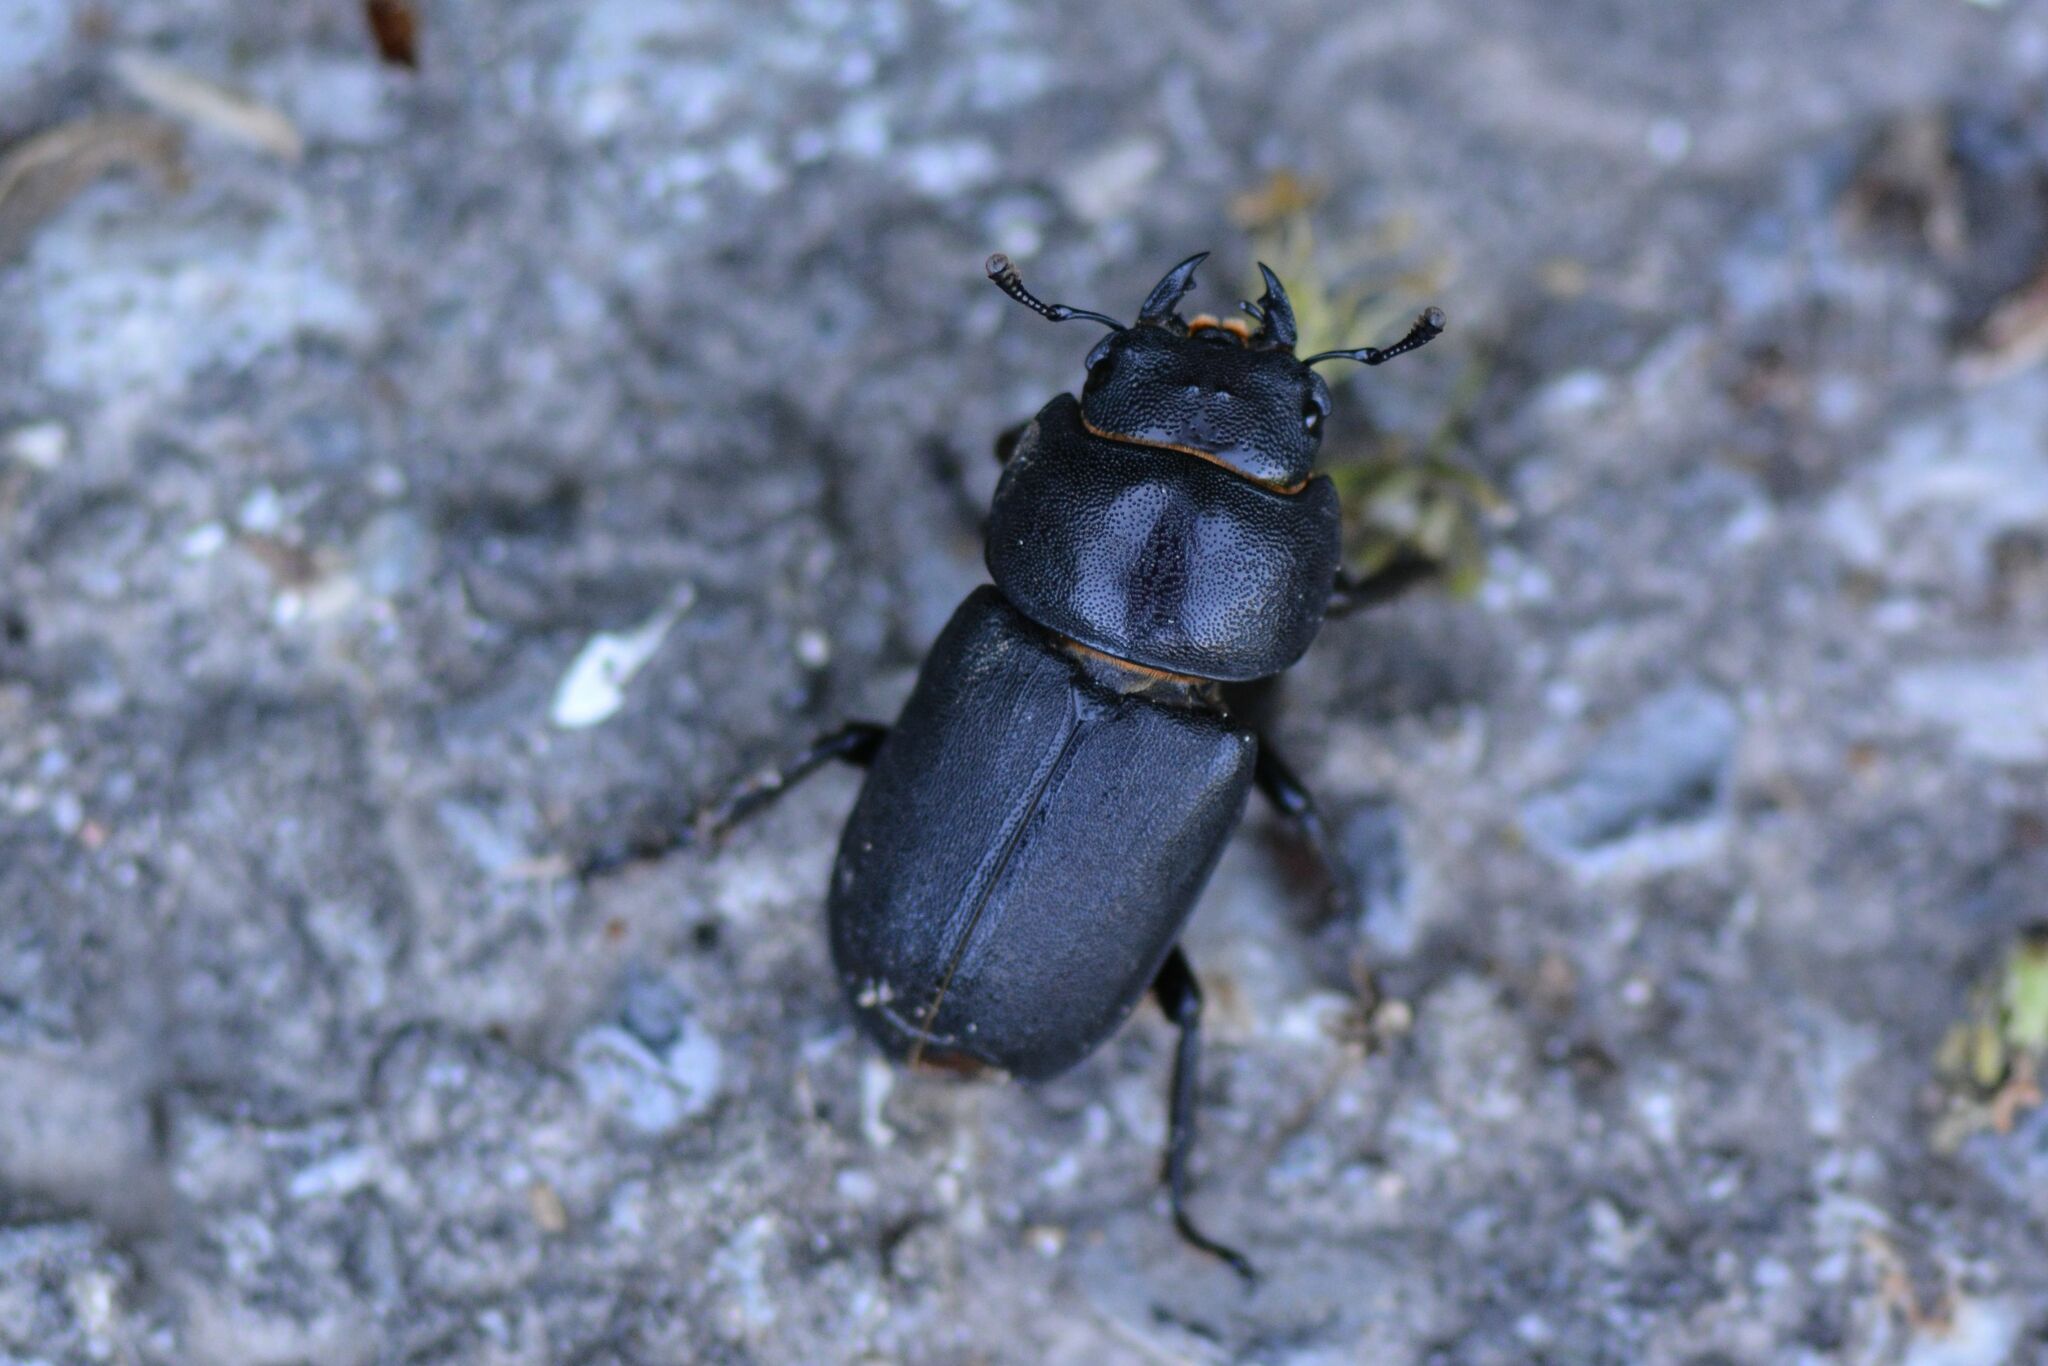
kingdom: Animalia
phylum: Arthropoda
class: Insecta
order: Coleoptera
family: Lucanidae
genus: Dorcus
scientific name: Dorcus parallelipipedus
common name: Lesser stag beetle
